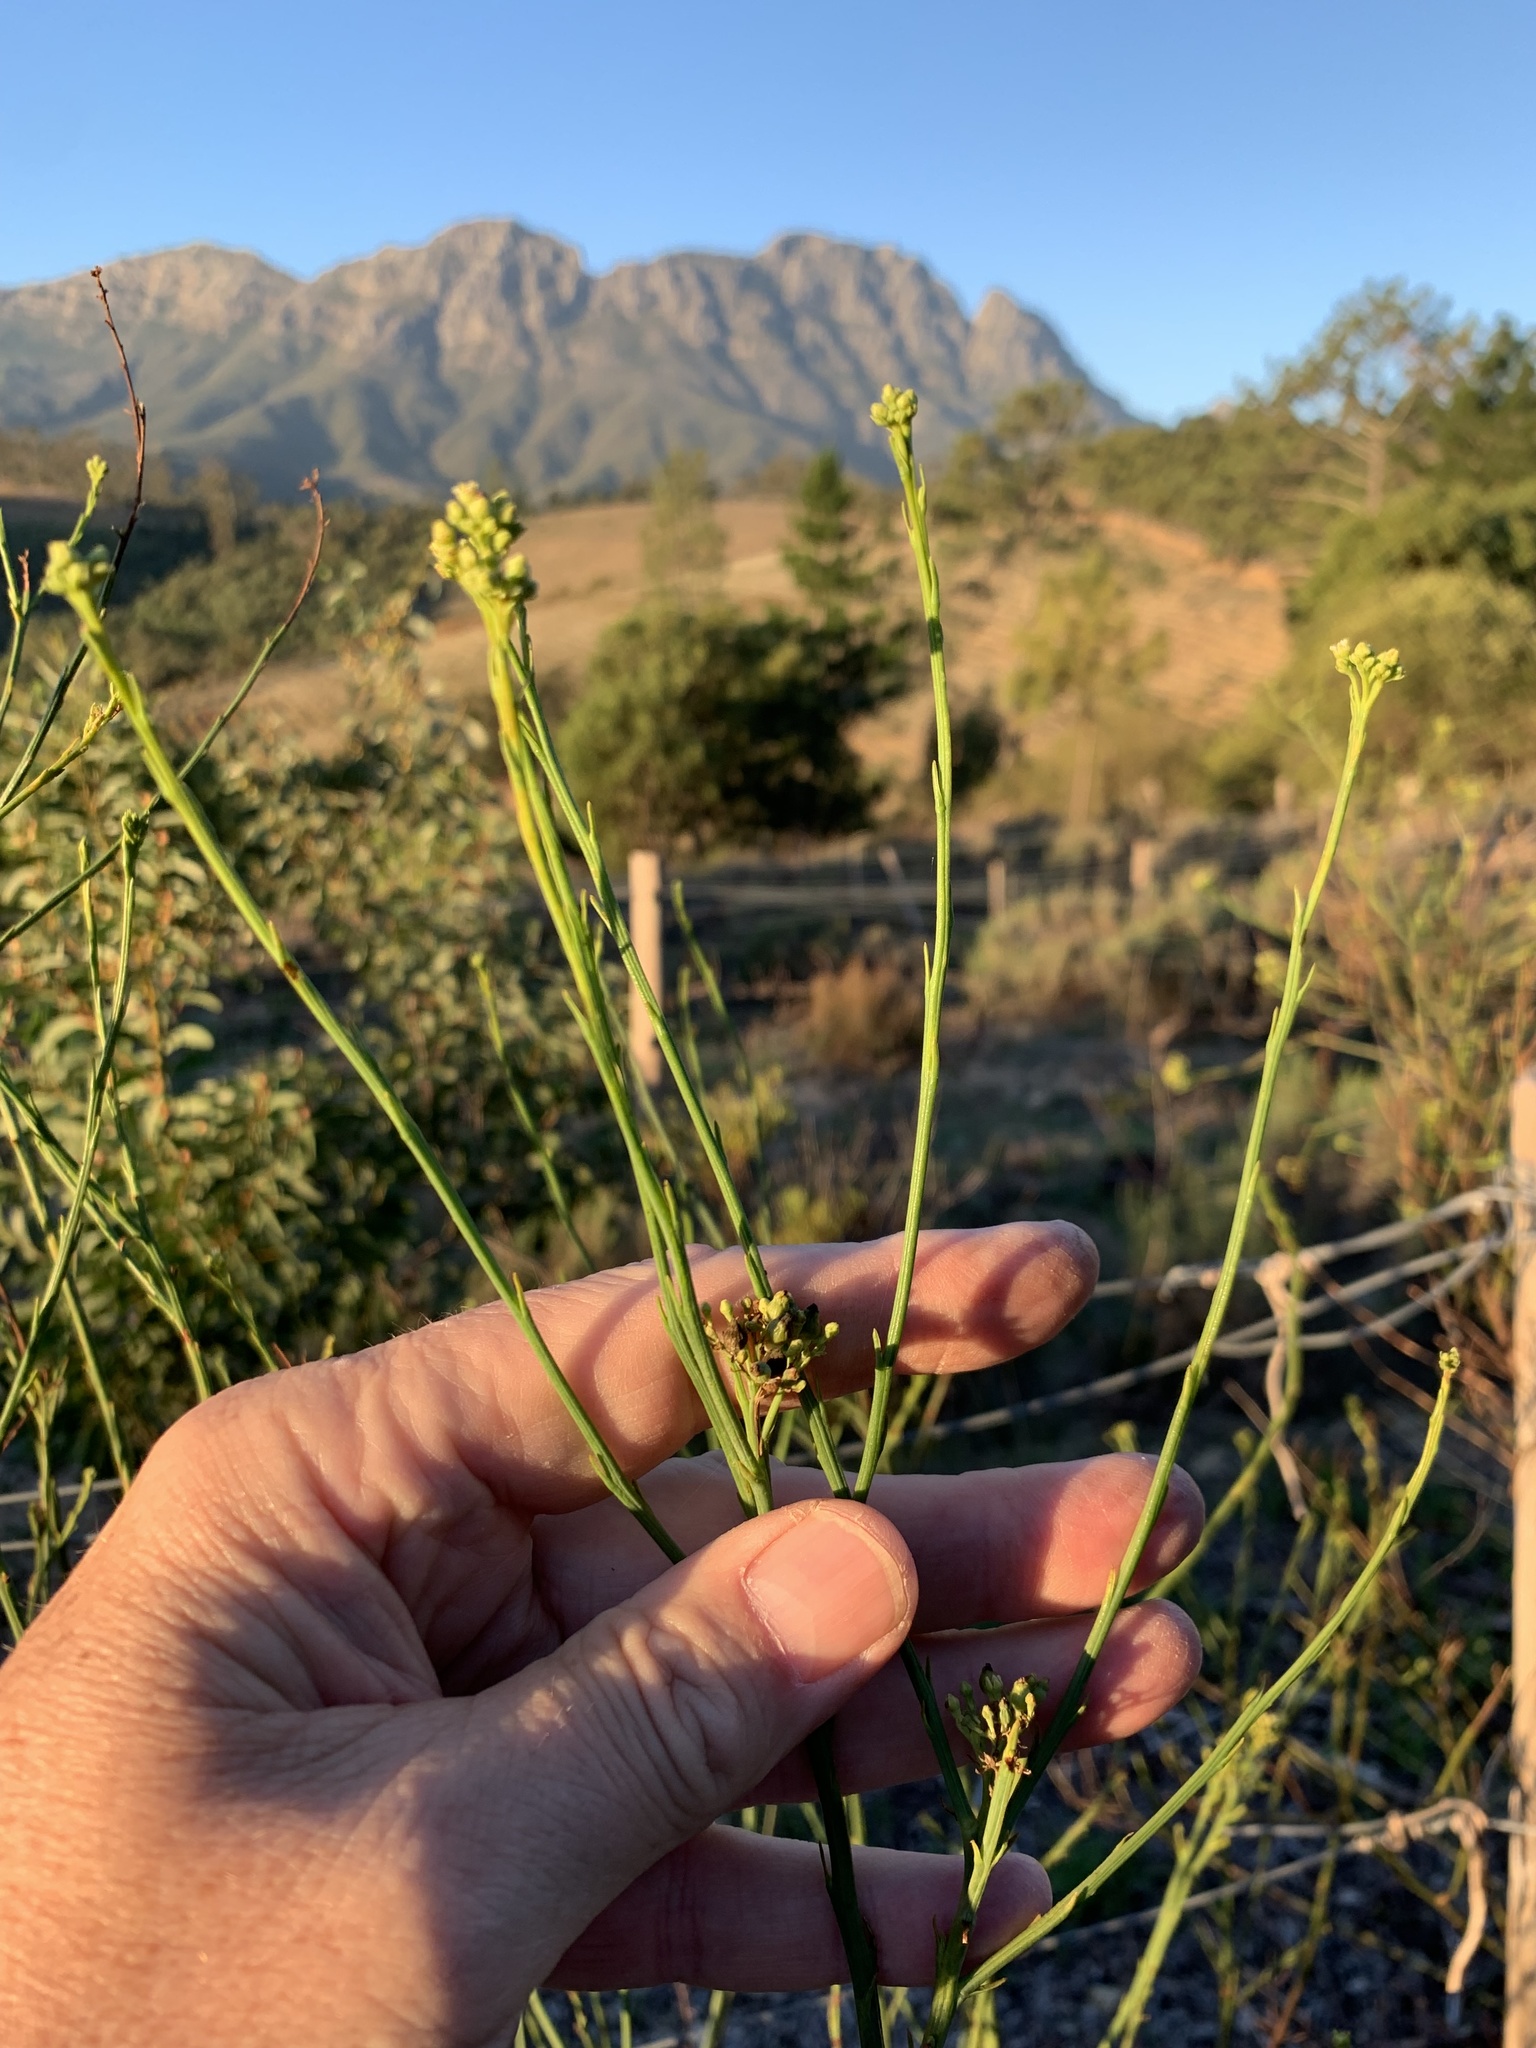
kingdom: Plantae
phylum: Tracheophyta
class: Magnoliopsida
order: Santalales
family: Thesiaceae
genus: Thesium
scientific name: Thesium strictum
